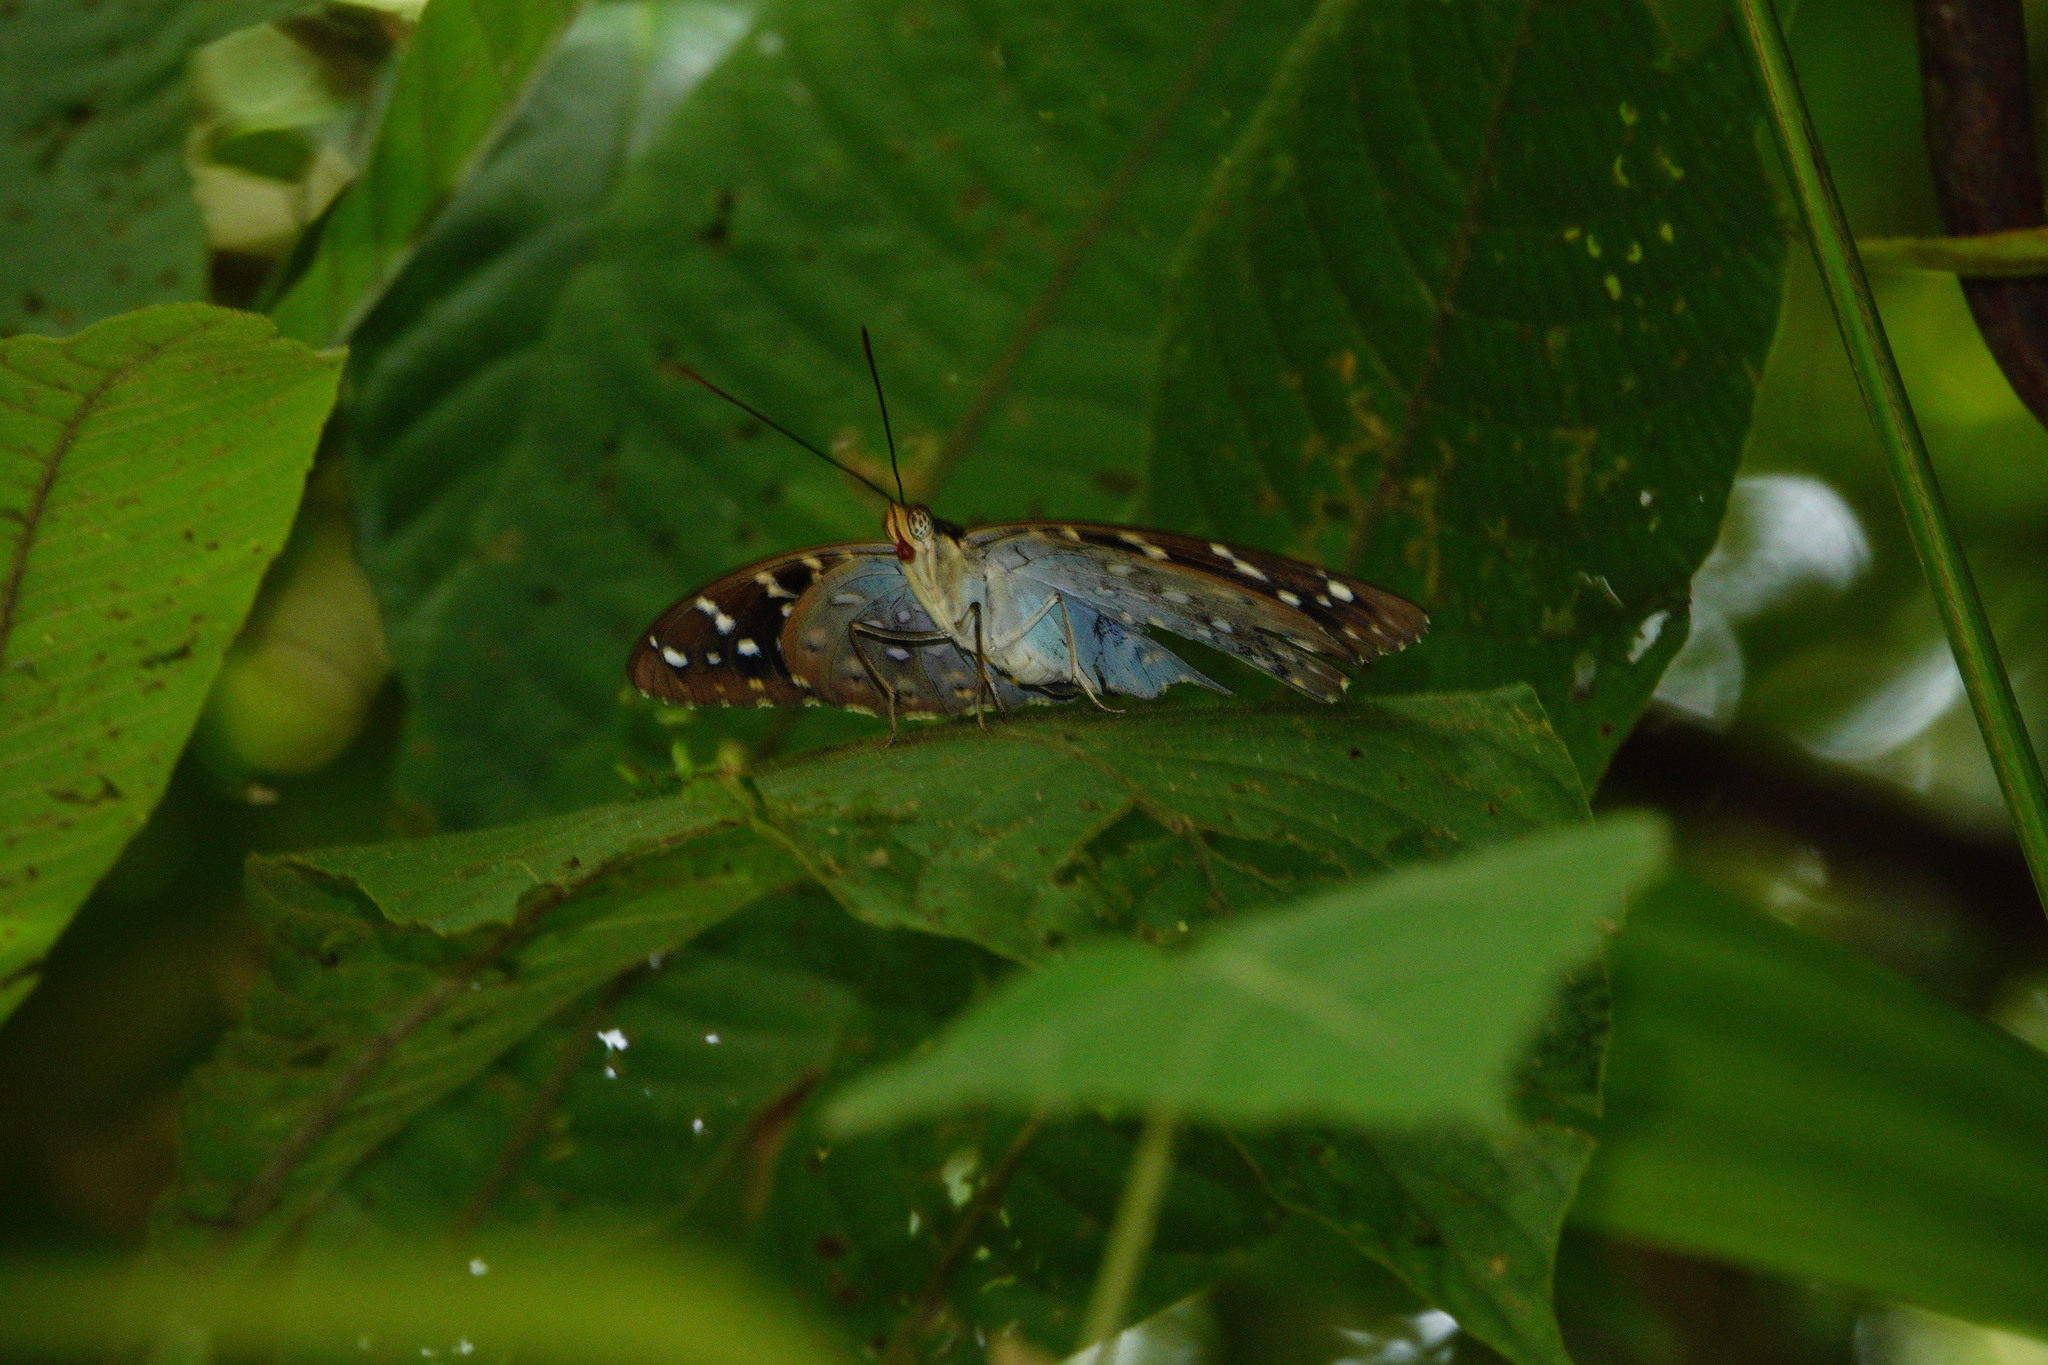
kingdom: Animalia
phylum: Arthropoda
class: Insecta
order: Lepidoptera
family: Nymphalidae
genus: Lexias
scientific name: Lexias pardalis
